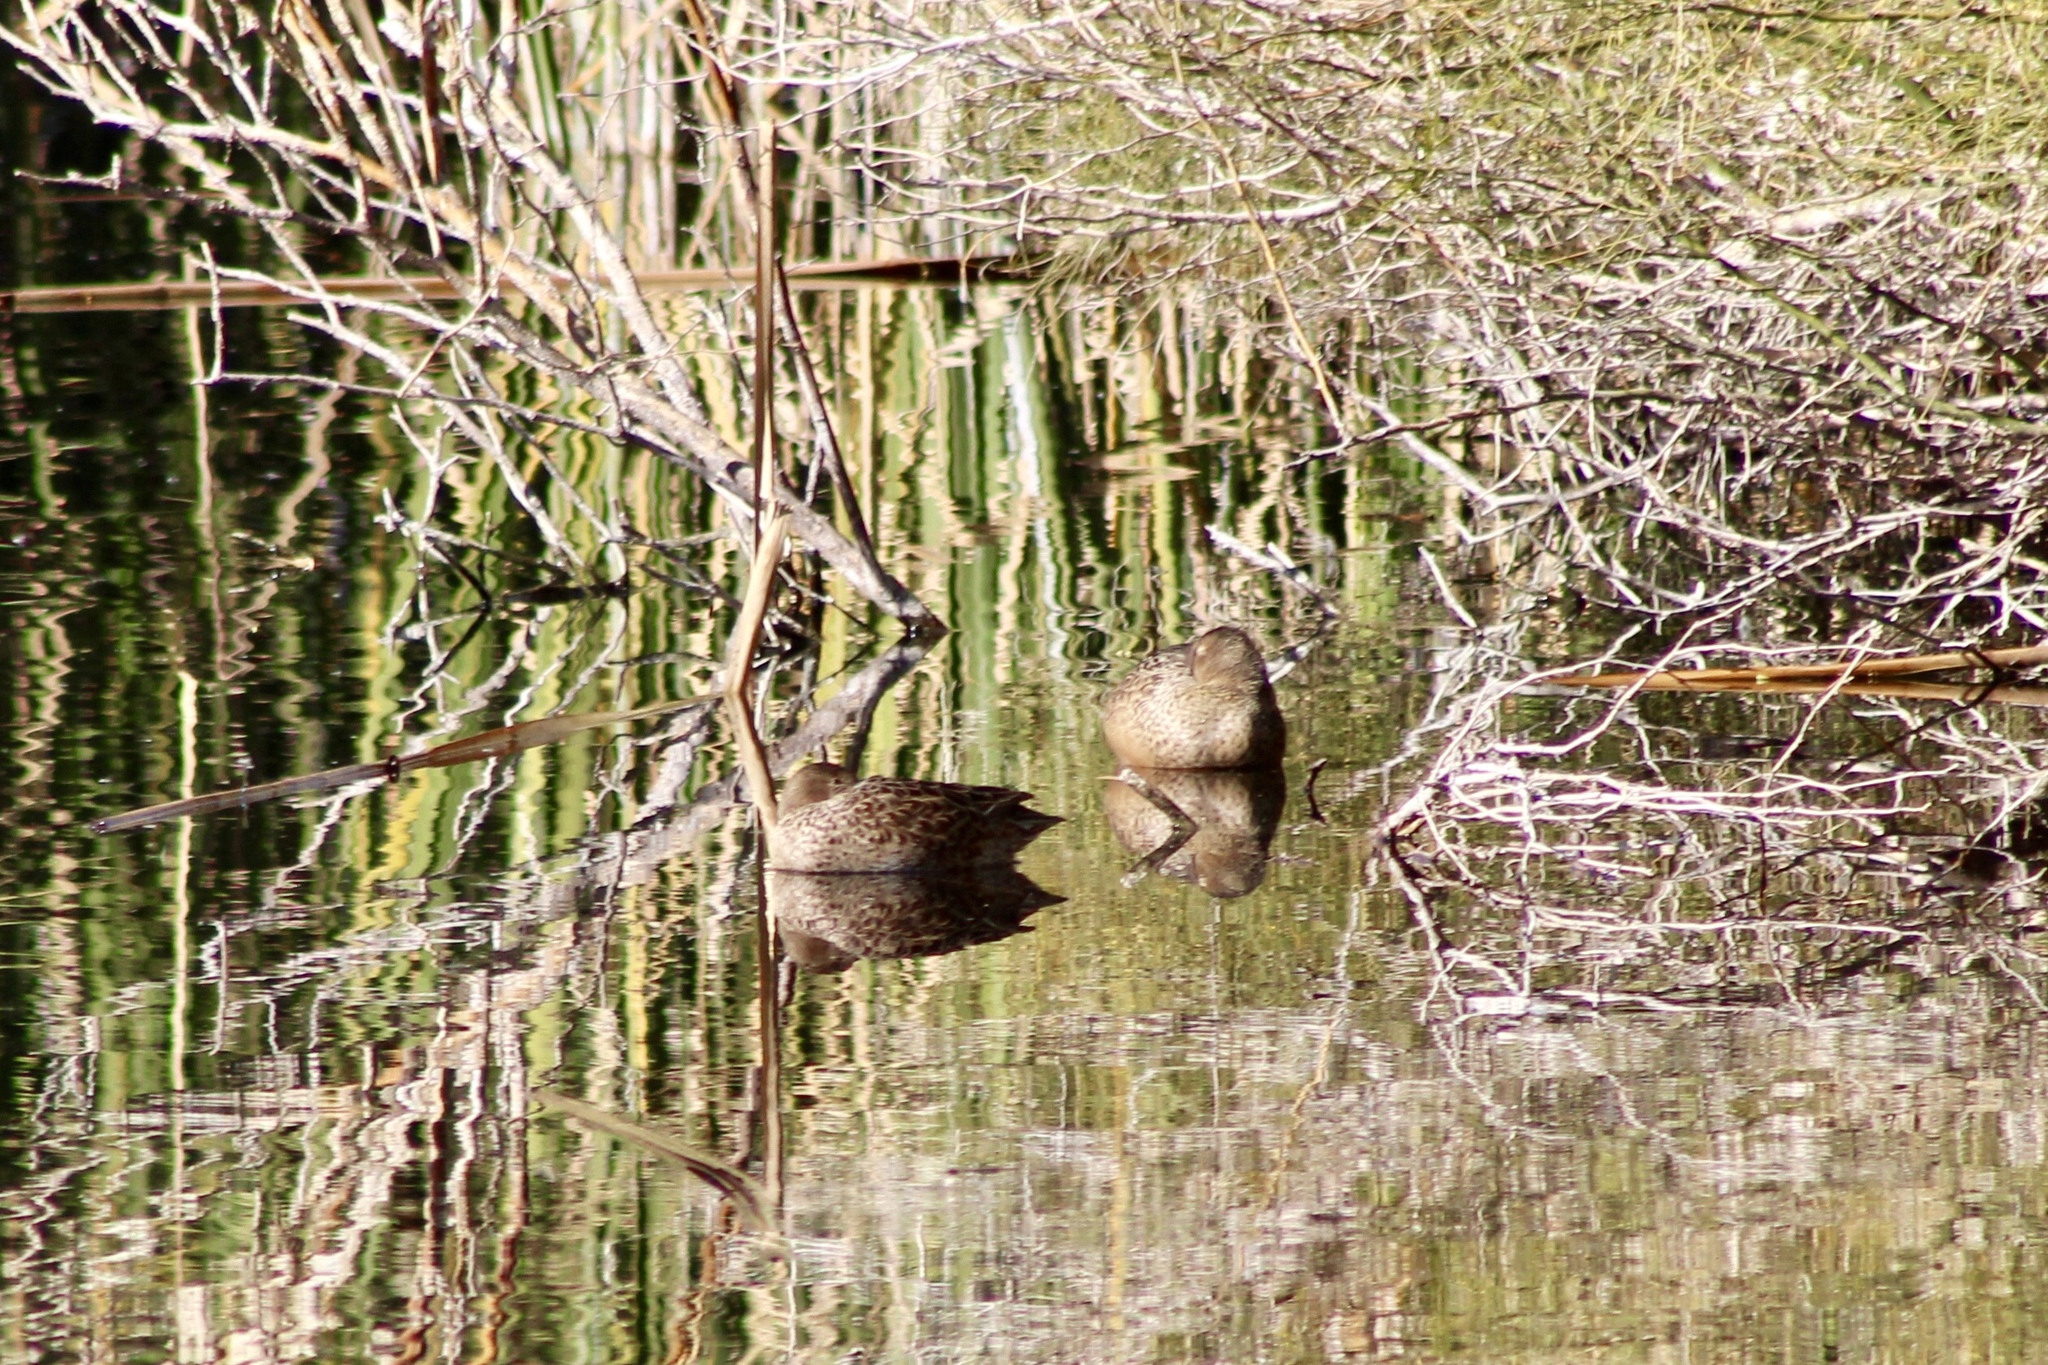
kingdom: Animalia
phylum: Chordata
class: Aves
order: Anseriformes
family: Anatidae
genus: Spatula
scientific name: Spatula cyanoptera
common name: Cinnamon teal
